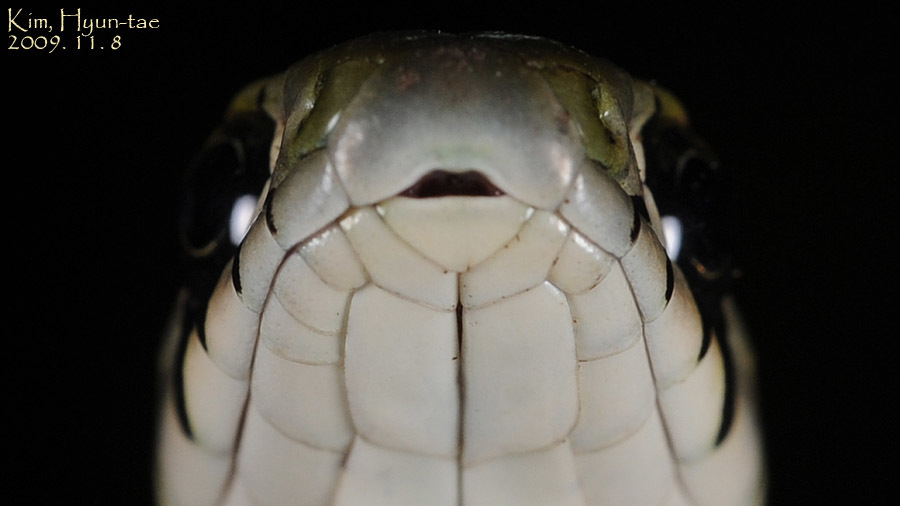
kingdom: Animalia
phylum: Chordata
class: Squamata
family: Colubridae
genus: Rhabdophis
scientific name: Rhabdophis tigrinus
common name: Tiger keelback
